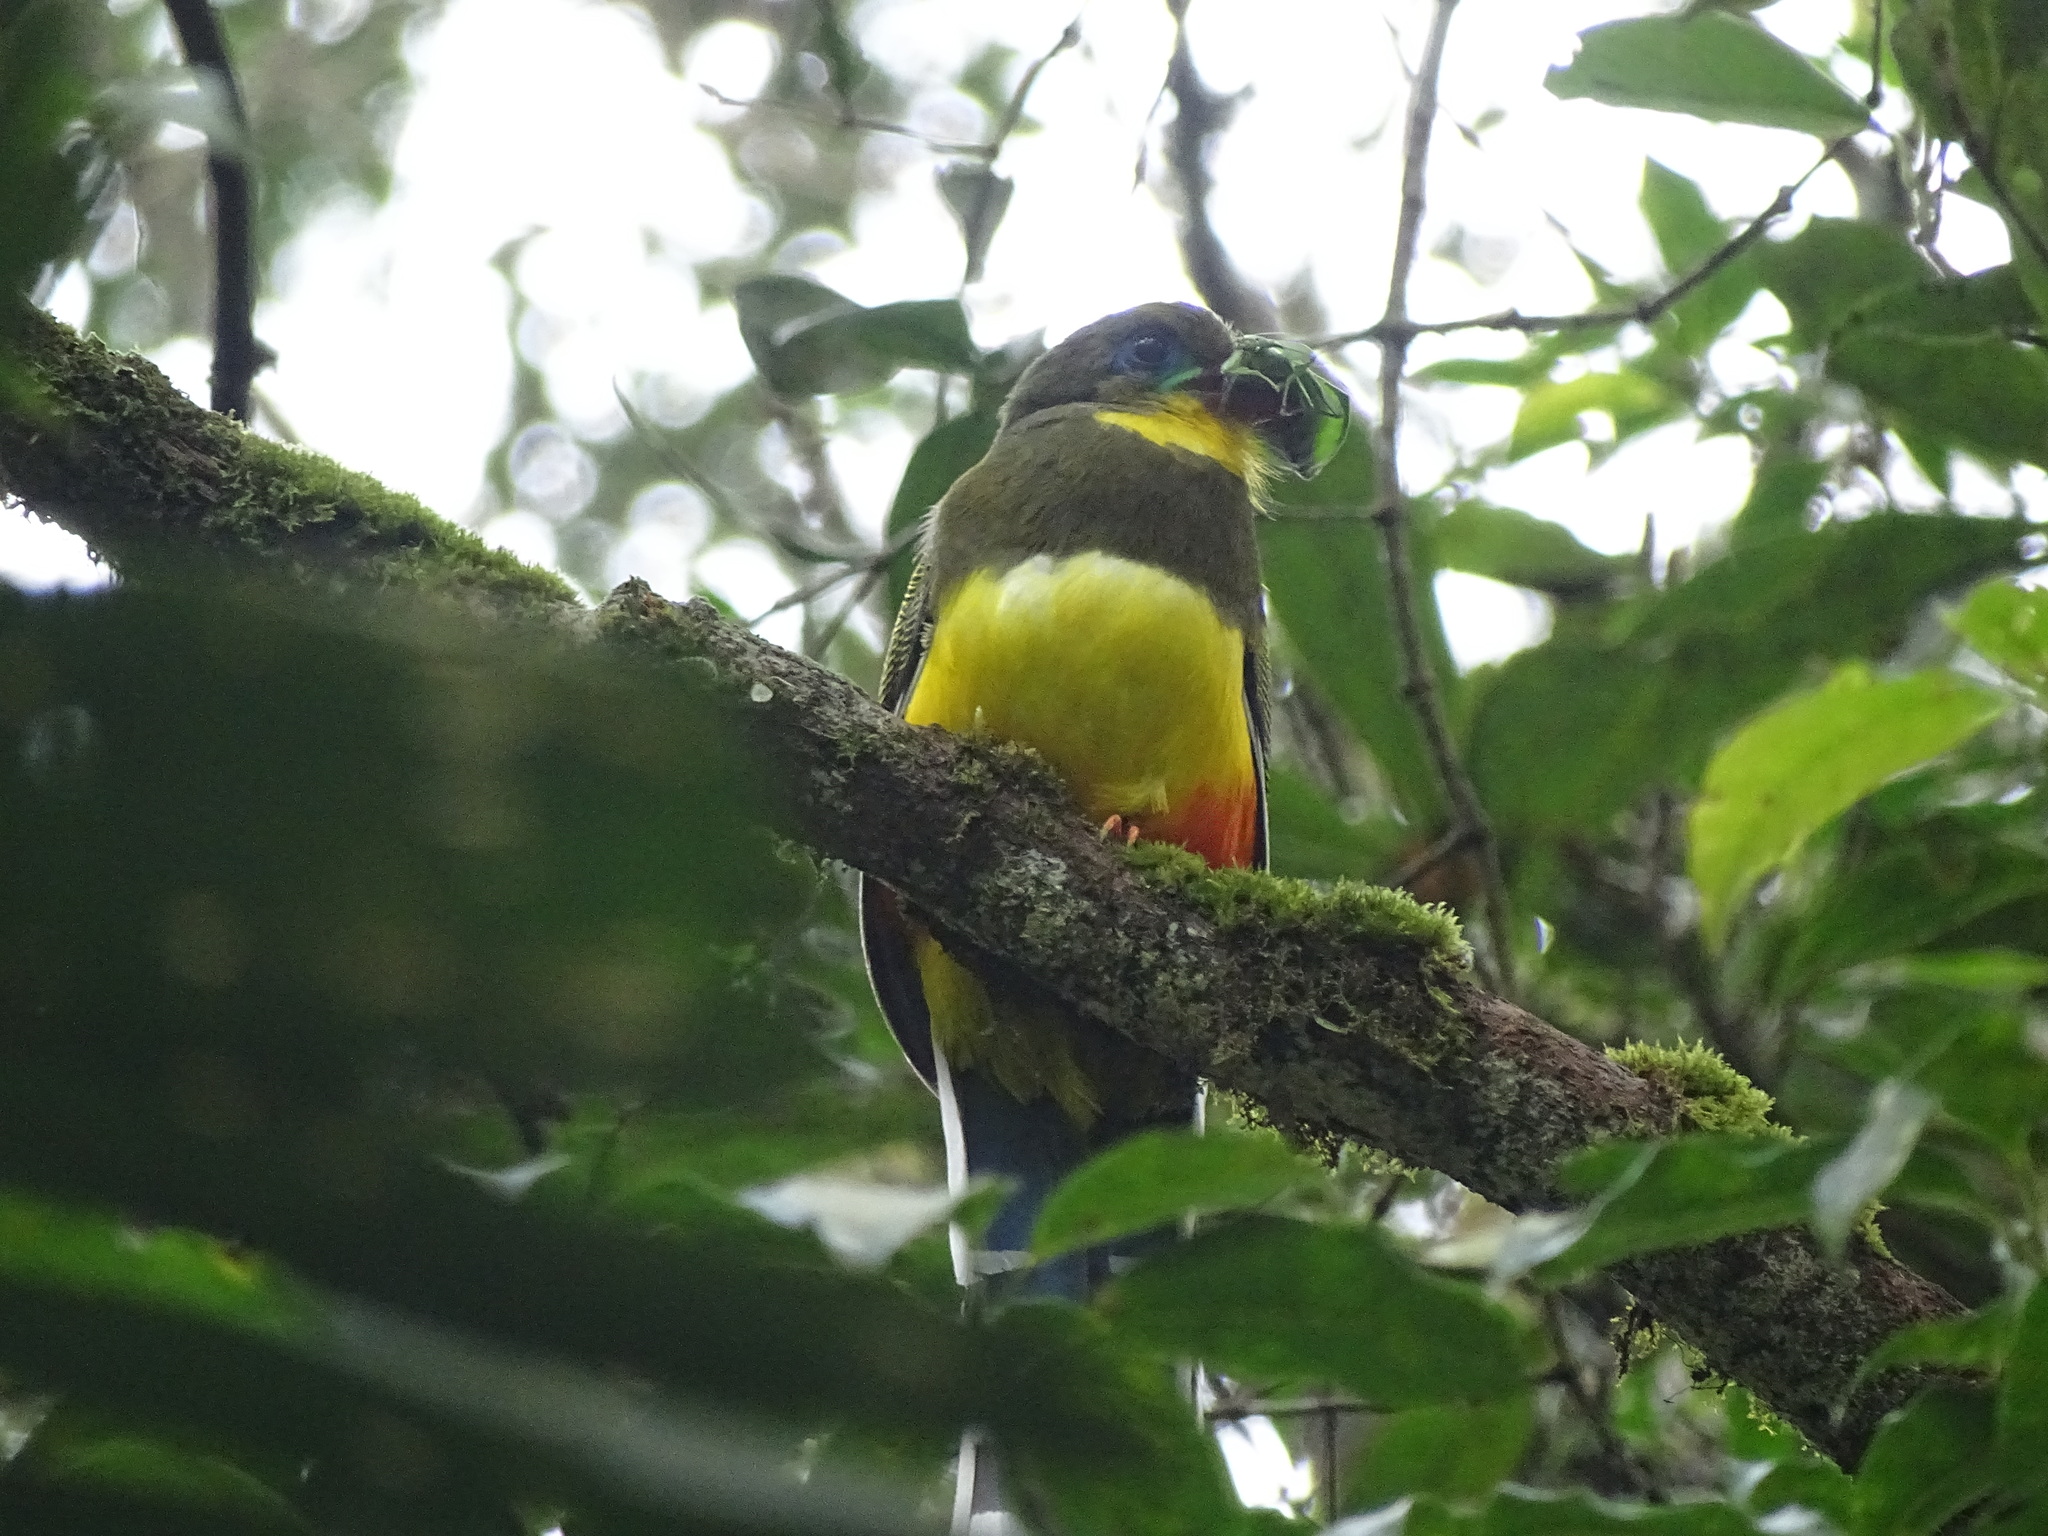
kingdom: Animalia
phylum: Chordata
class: Aves
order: Trogoniformes
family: Trogonidae
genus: Apalharpactes
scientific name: Apalharpactes reinwardtii
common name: Javan trogon
